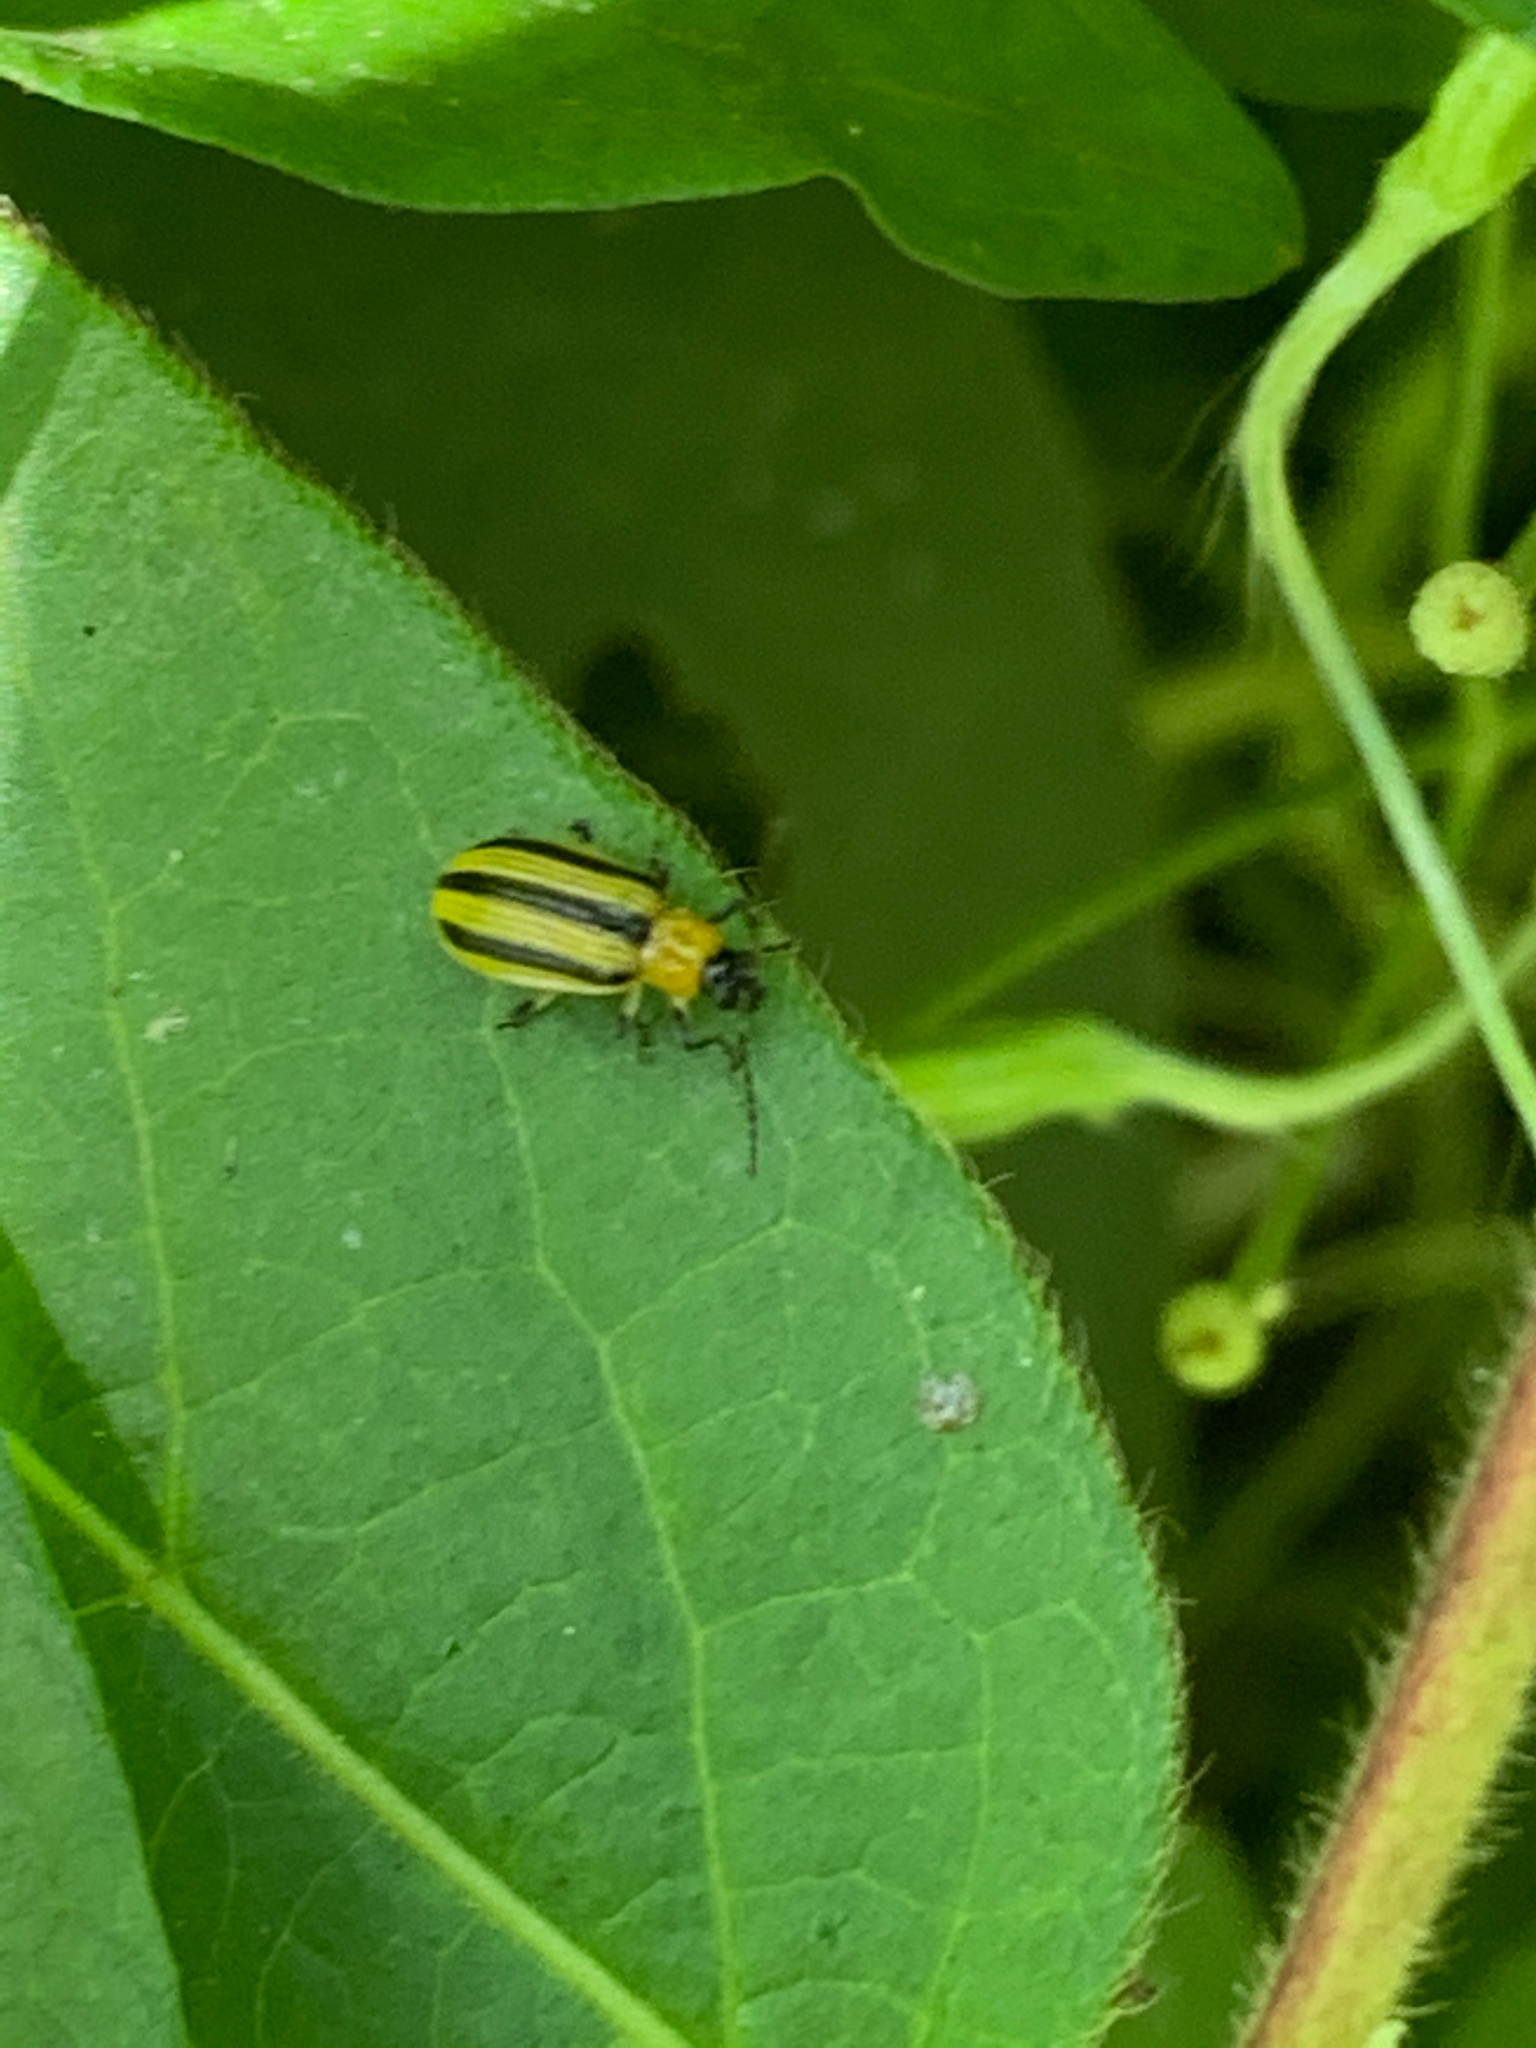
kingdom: Animalia
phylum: Arthropoda
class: Insecta
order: Coleoptera
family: Chrysomelidae
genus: Acalymma
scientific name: Acalymma vittatum
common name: Striped cucumber beetle
